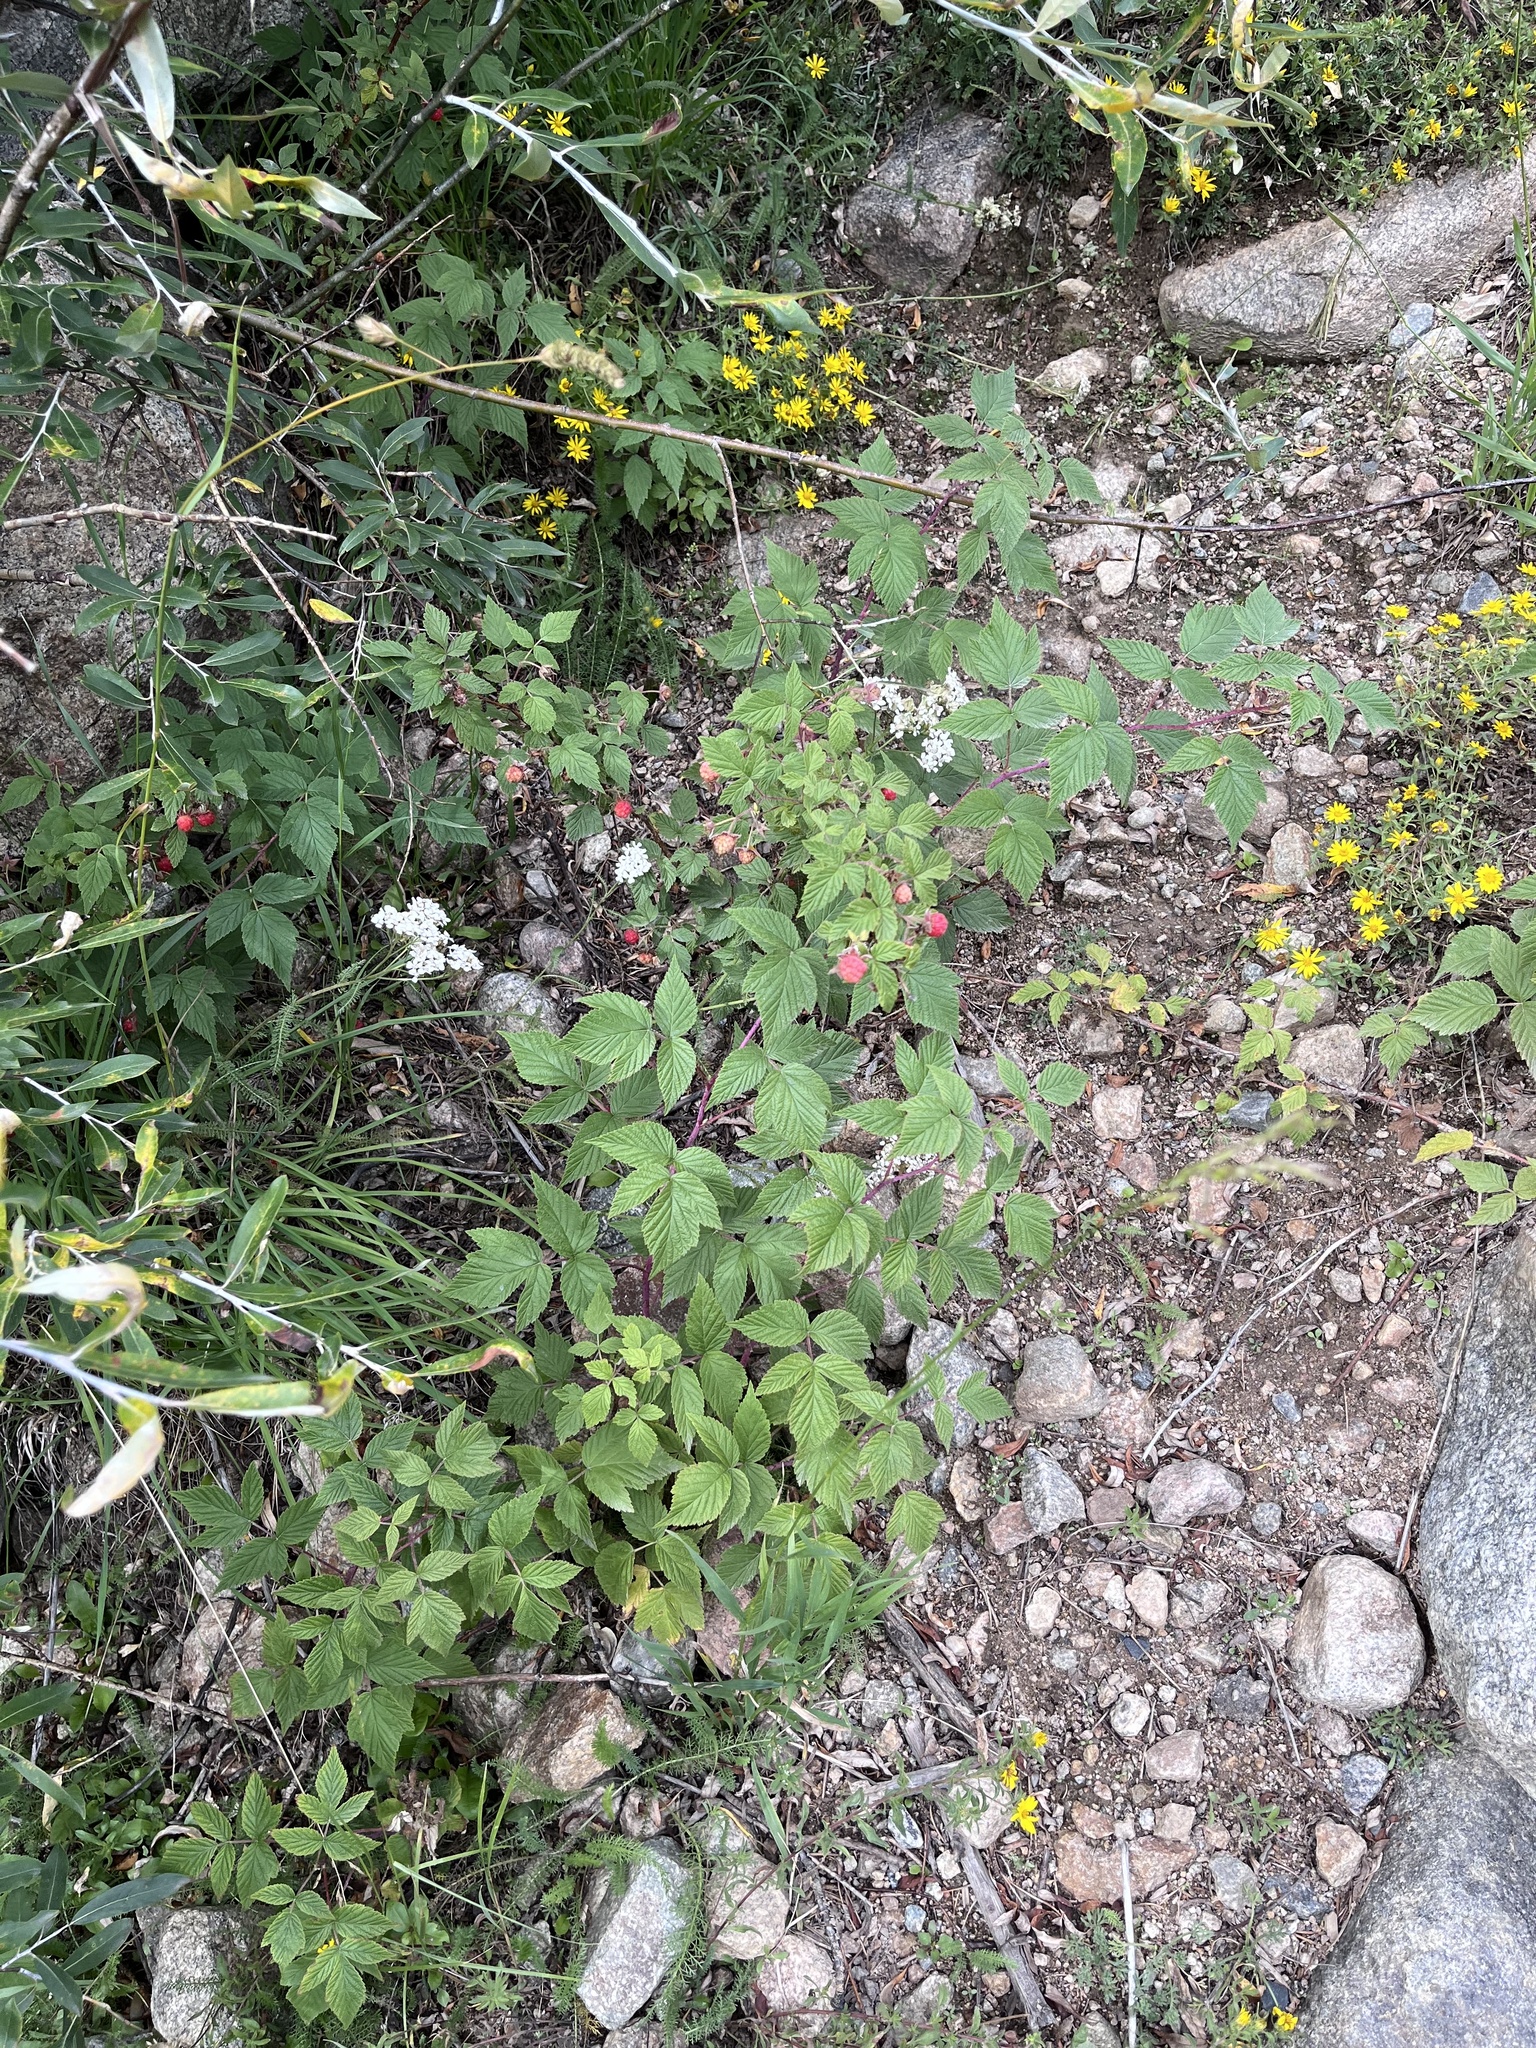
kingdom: Plantae
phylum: Tracheophyta
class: Magnoliopsida
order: Rosales
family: Rosaceae
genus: Rubus
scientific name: Rubus idaeus
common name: Raspberry
